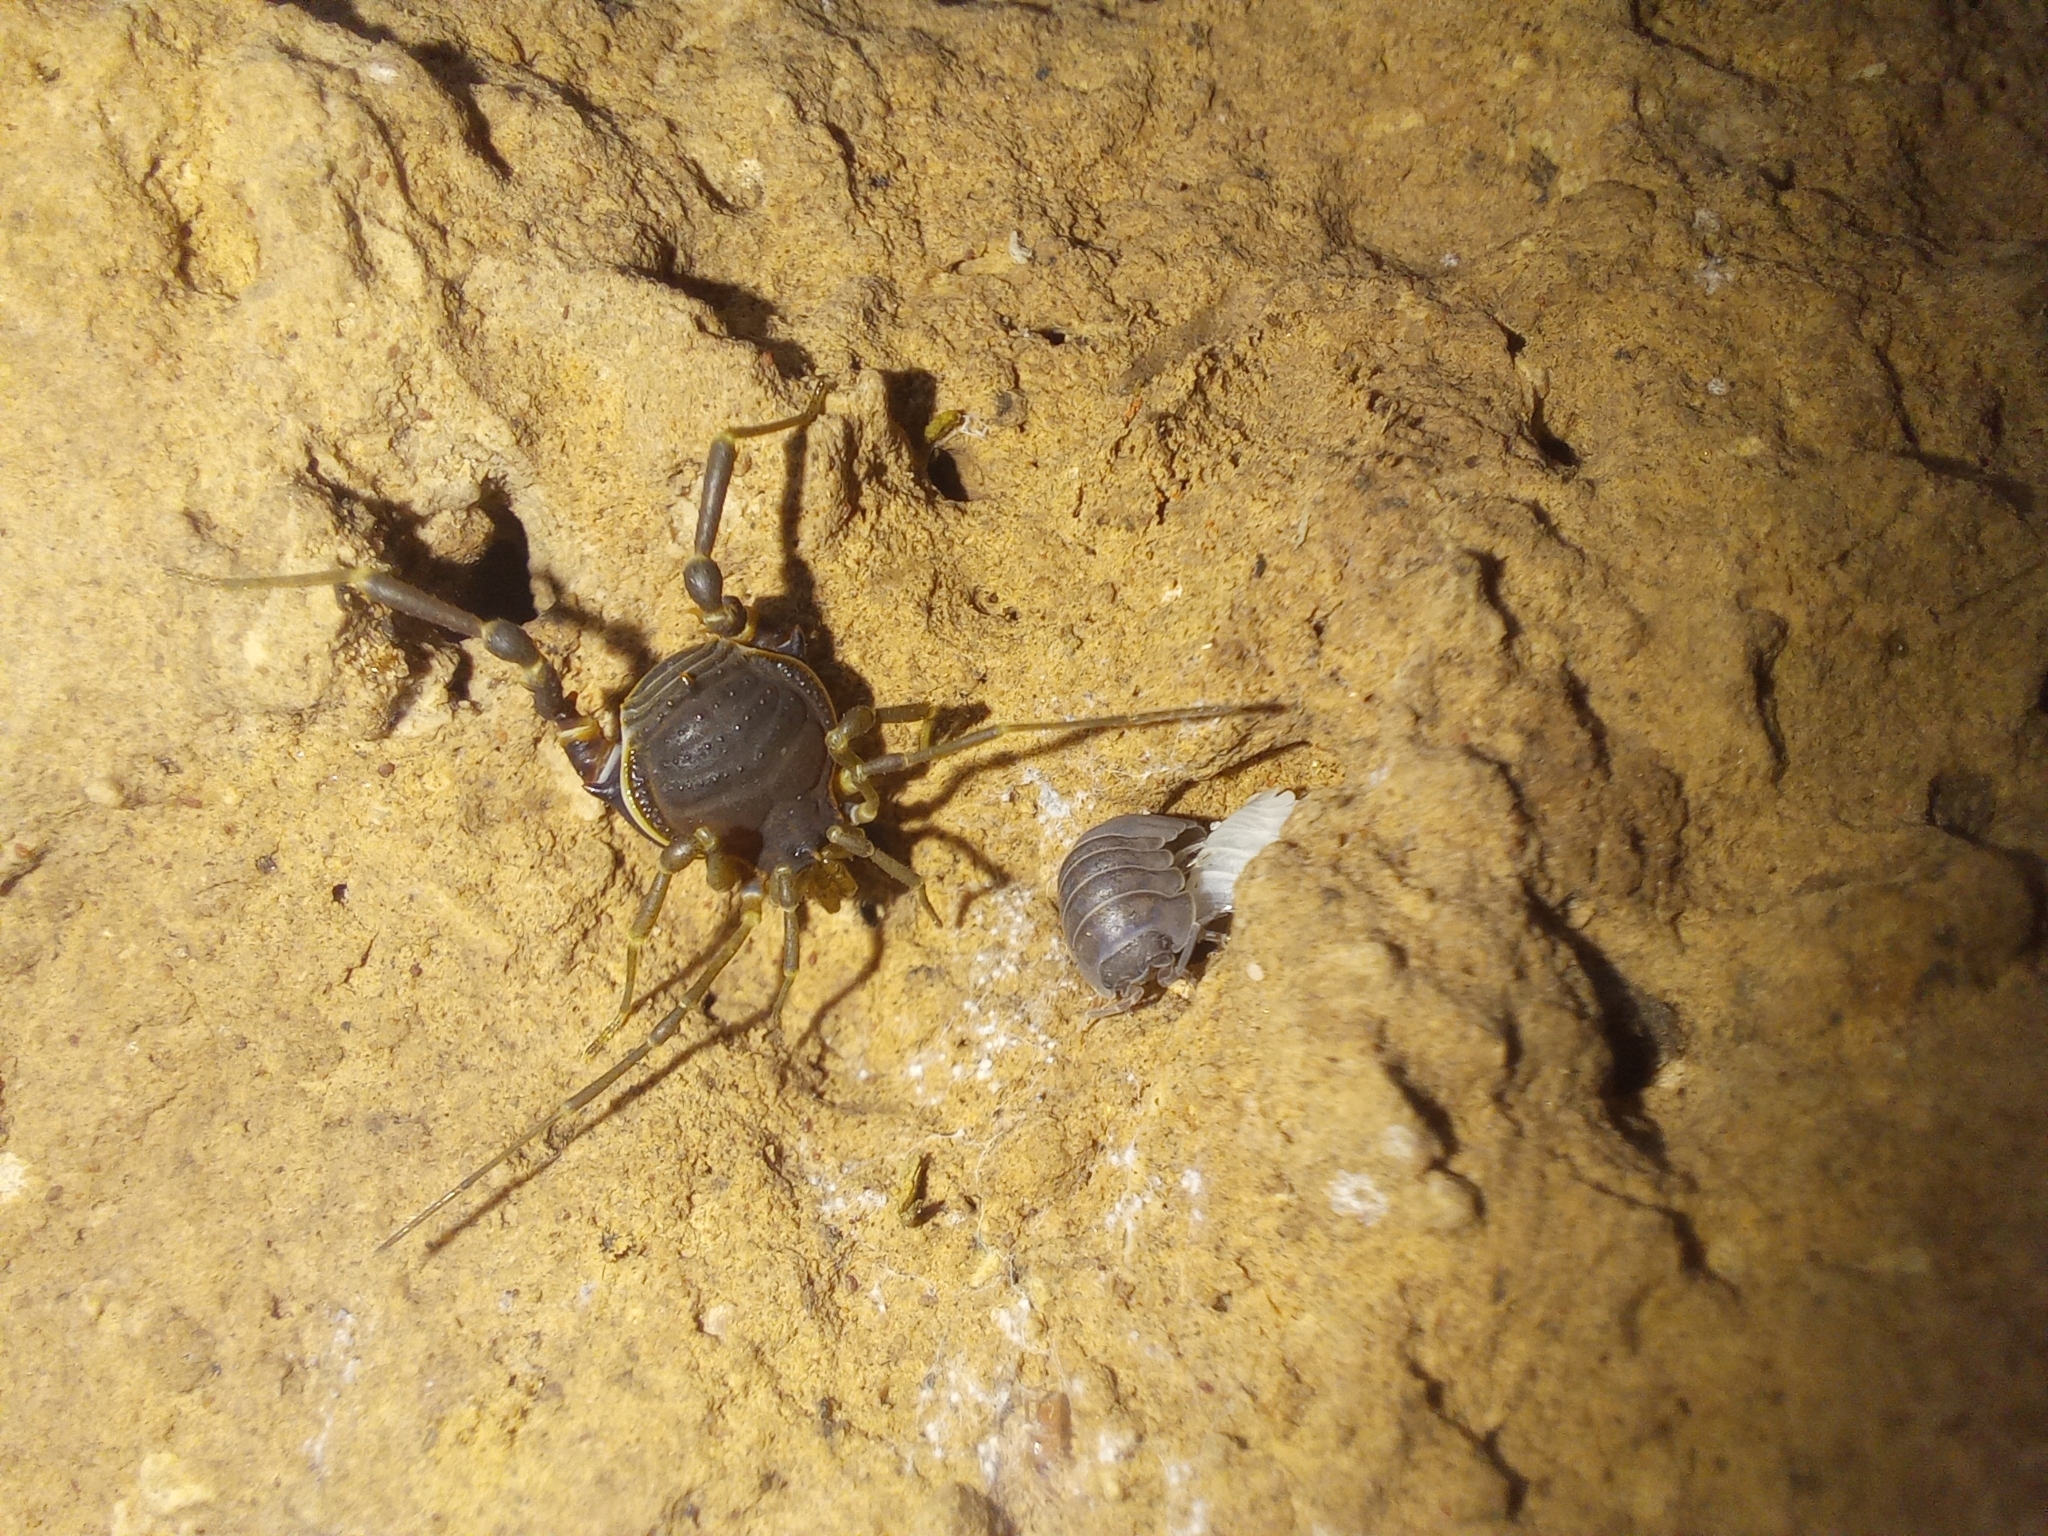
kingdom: Animalia
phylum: Arthropoda
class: Arachnida
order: Opiliones
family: Gonyleptidae
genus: Acanthopachylus
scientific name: Acanthopachylus robustus
